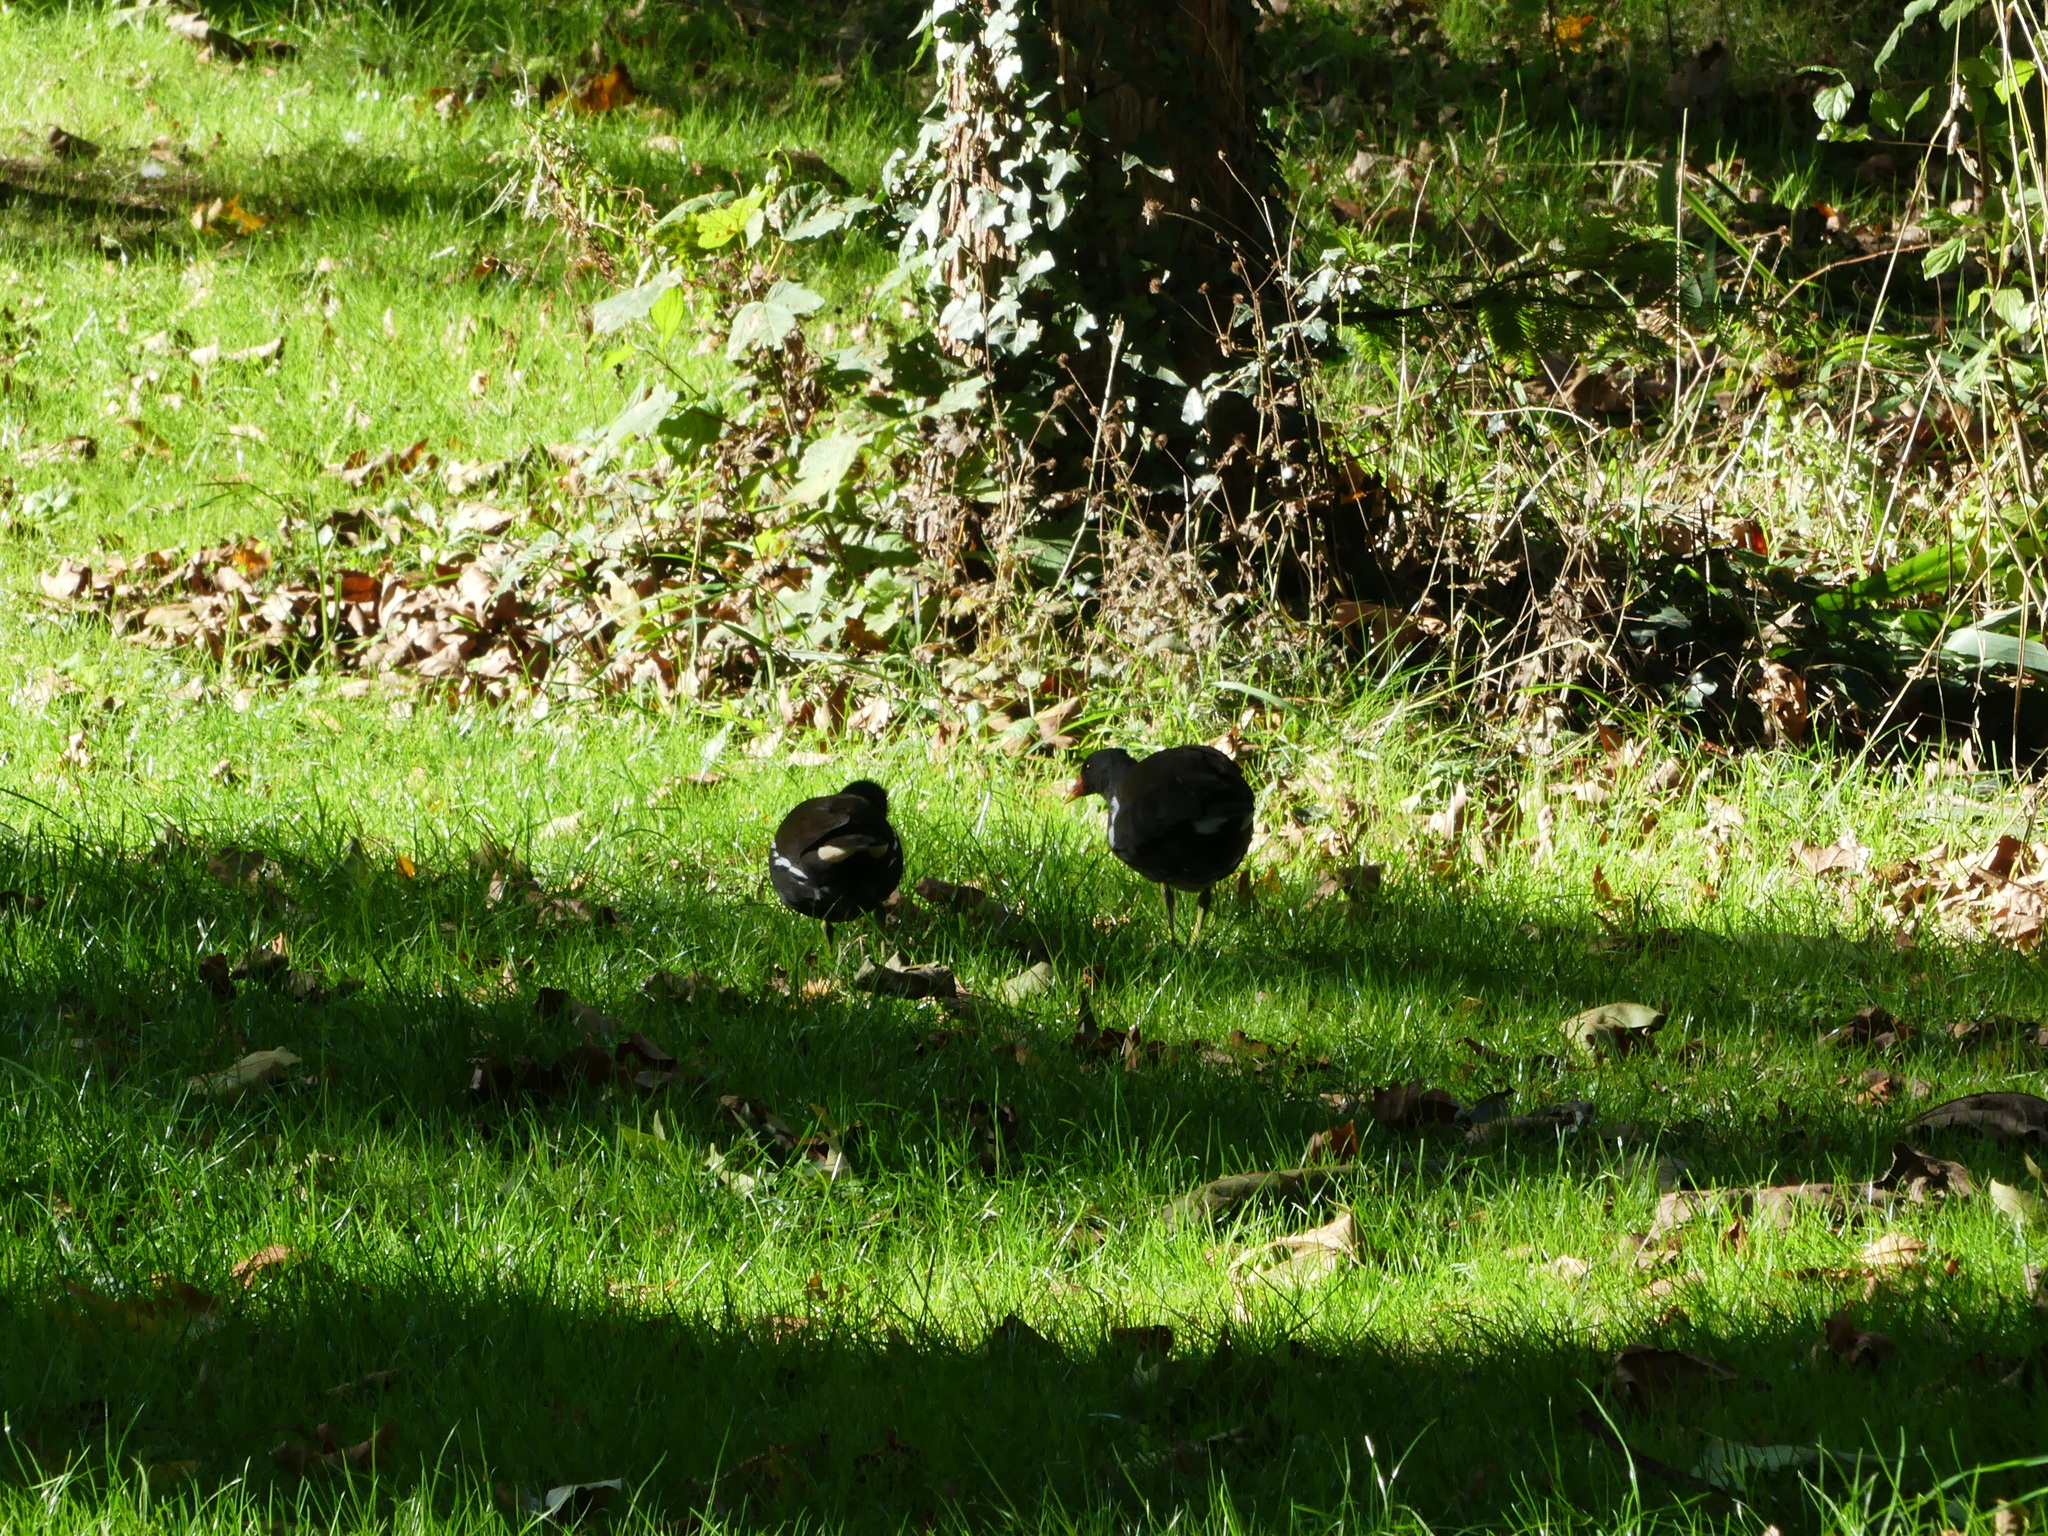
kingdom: Animalia
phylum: Chordata
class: Aves
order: Gruiformes
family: Rallidae
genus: Gallinula
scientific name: Gallinula chloropus
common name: Common moorhen
